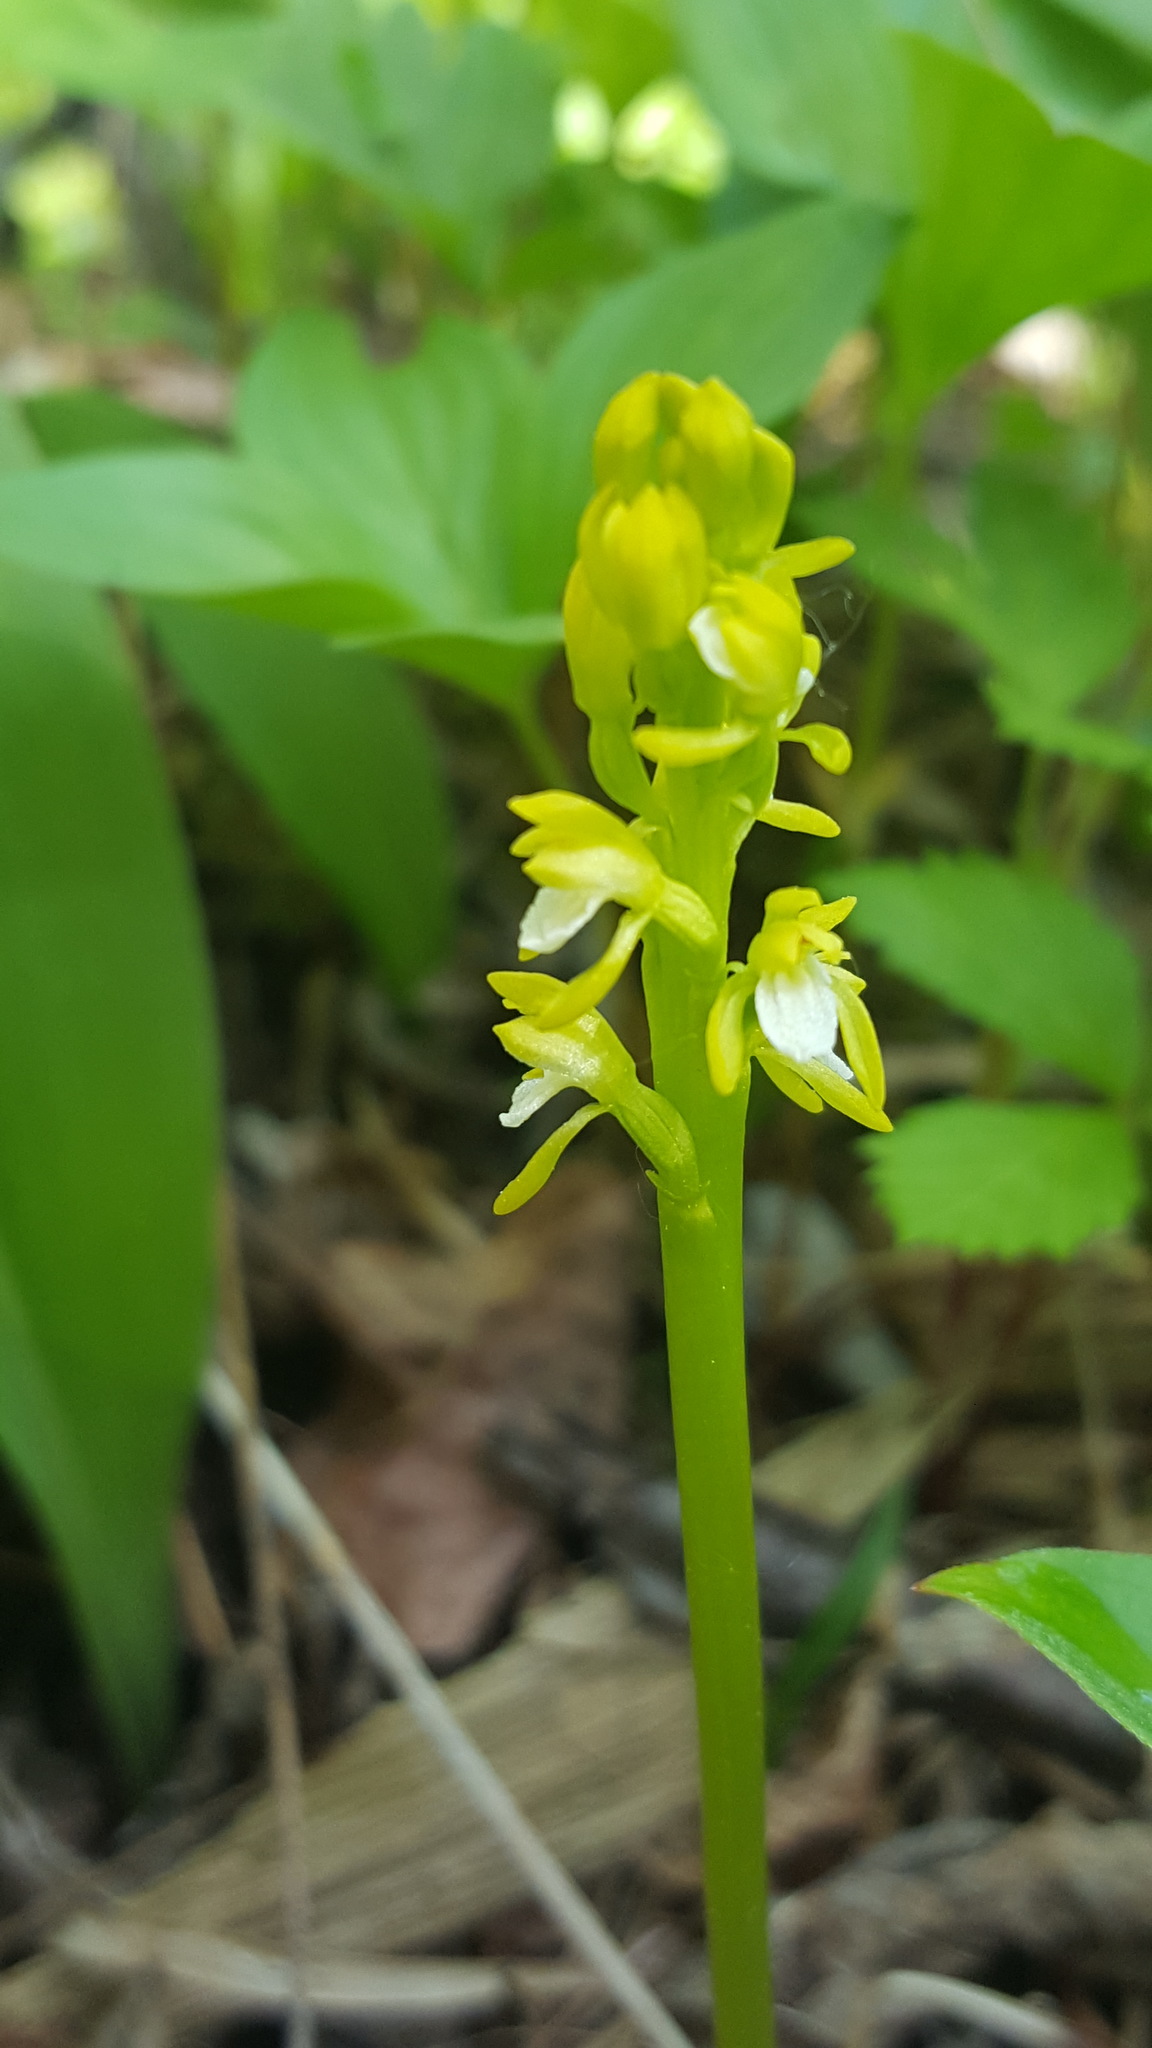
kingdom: Plantae
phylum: Tracheophyta
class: Liliopsida
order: Asparagales
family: Orchidaceae
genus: Corallorhiza
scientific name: Corallorhiza trifida
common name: Yellow coralroot
